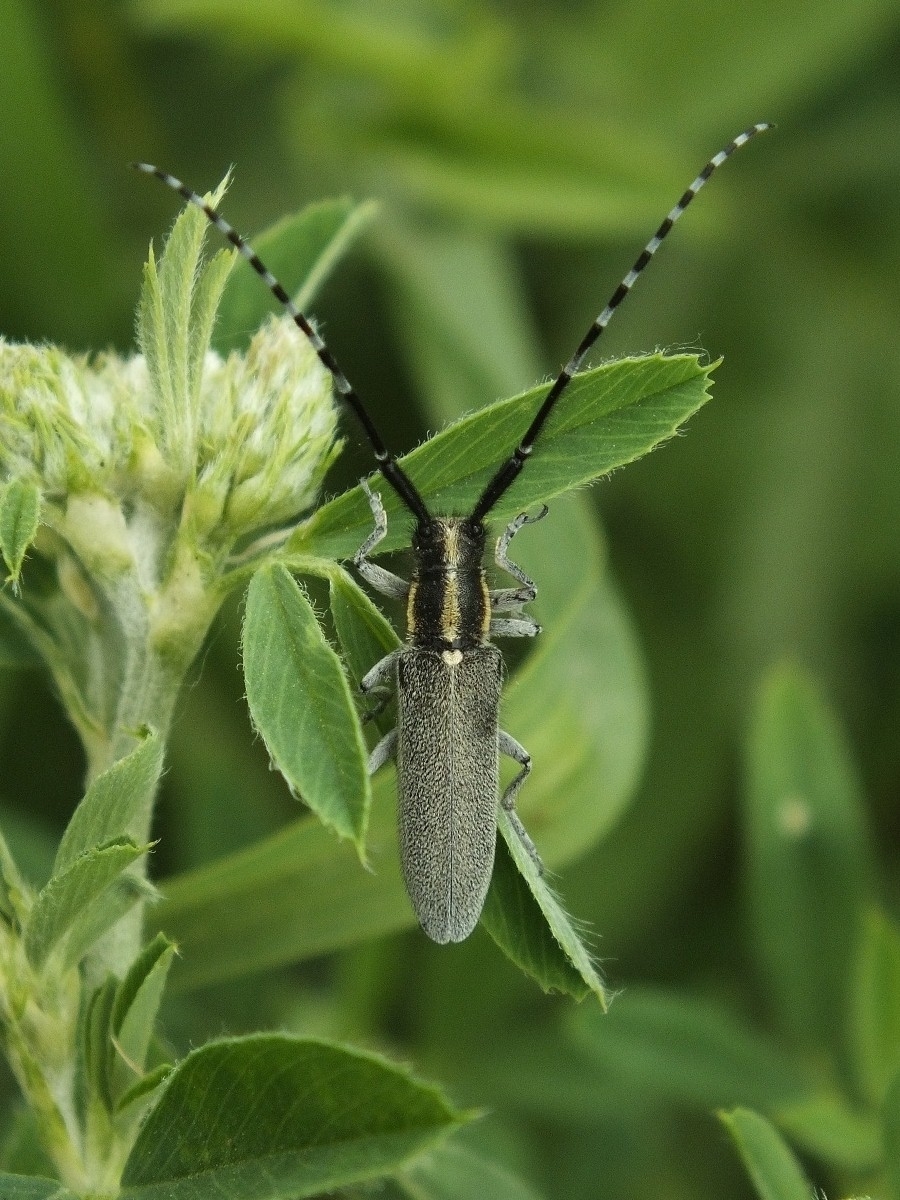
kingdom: Animalia
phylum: Arthropoda
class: Insecta
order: Coleoptera
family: Cerambycidae
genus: Agapanthia
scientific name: Agapanthia maculicornis
